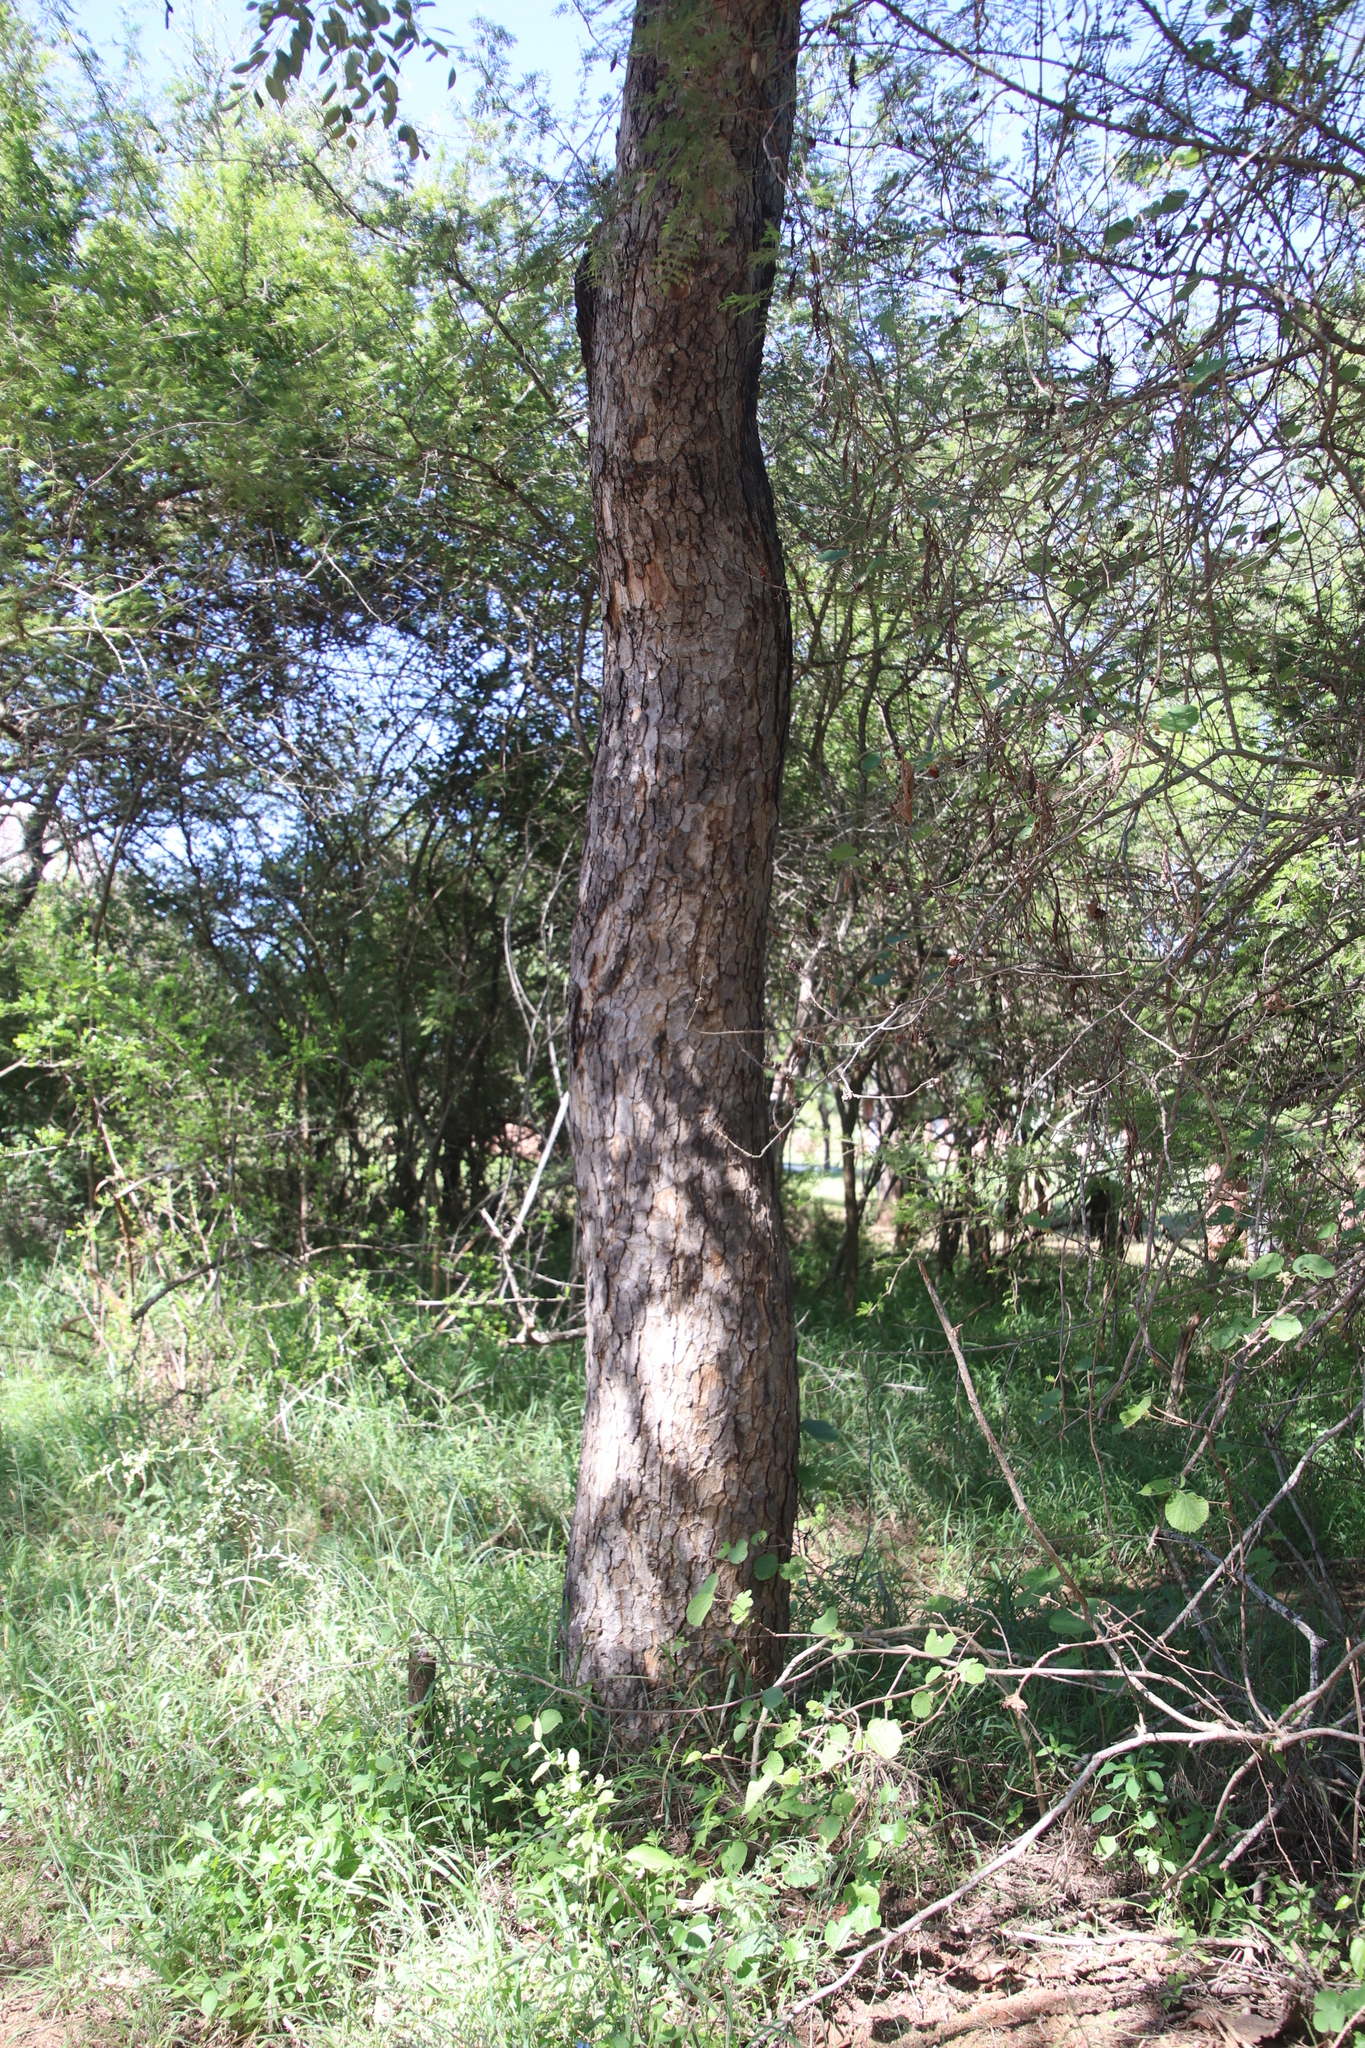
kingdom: Plantae
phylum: Tracheophyta
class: Magnoliopsida
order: Sapindales
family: Anacardiaceae
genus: Sclerocarya
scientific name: Sclerocarya birrea
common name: Marula
